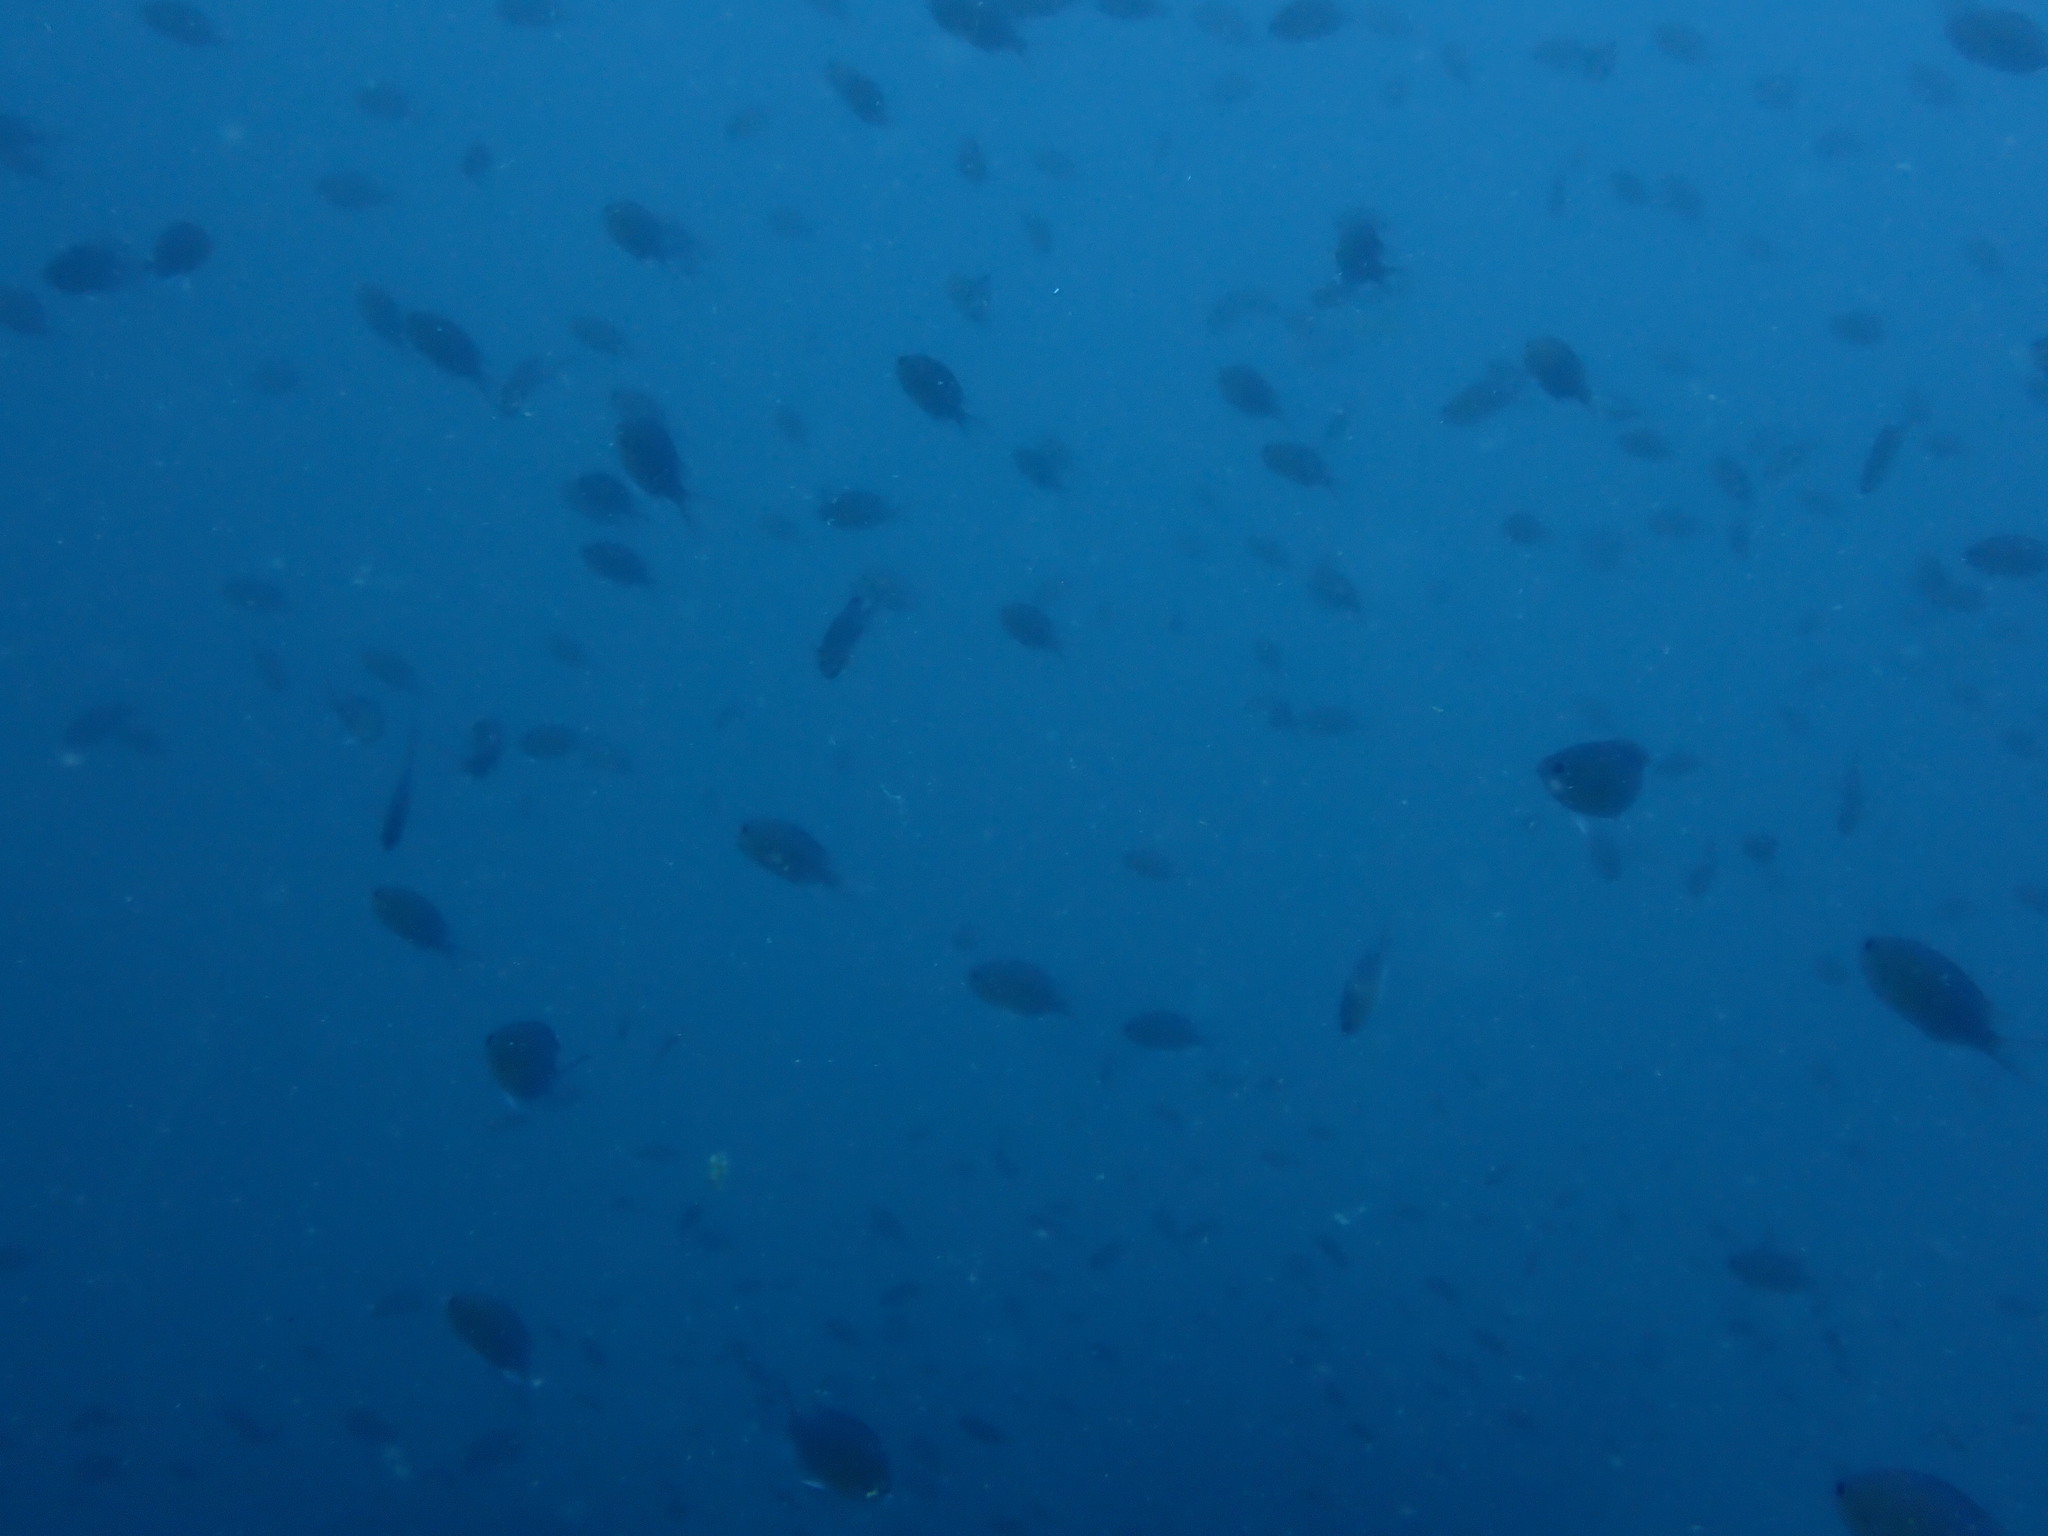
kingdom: Animalia
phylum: Chordata
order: Perciformes
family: Pomacentridae
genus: Chromis
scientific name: Chromis cinerascens
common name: Green chromis
